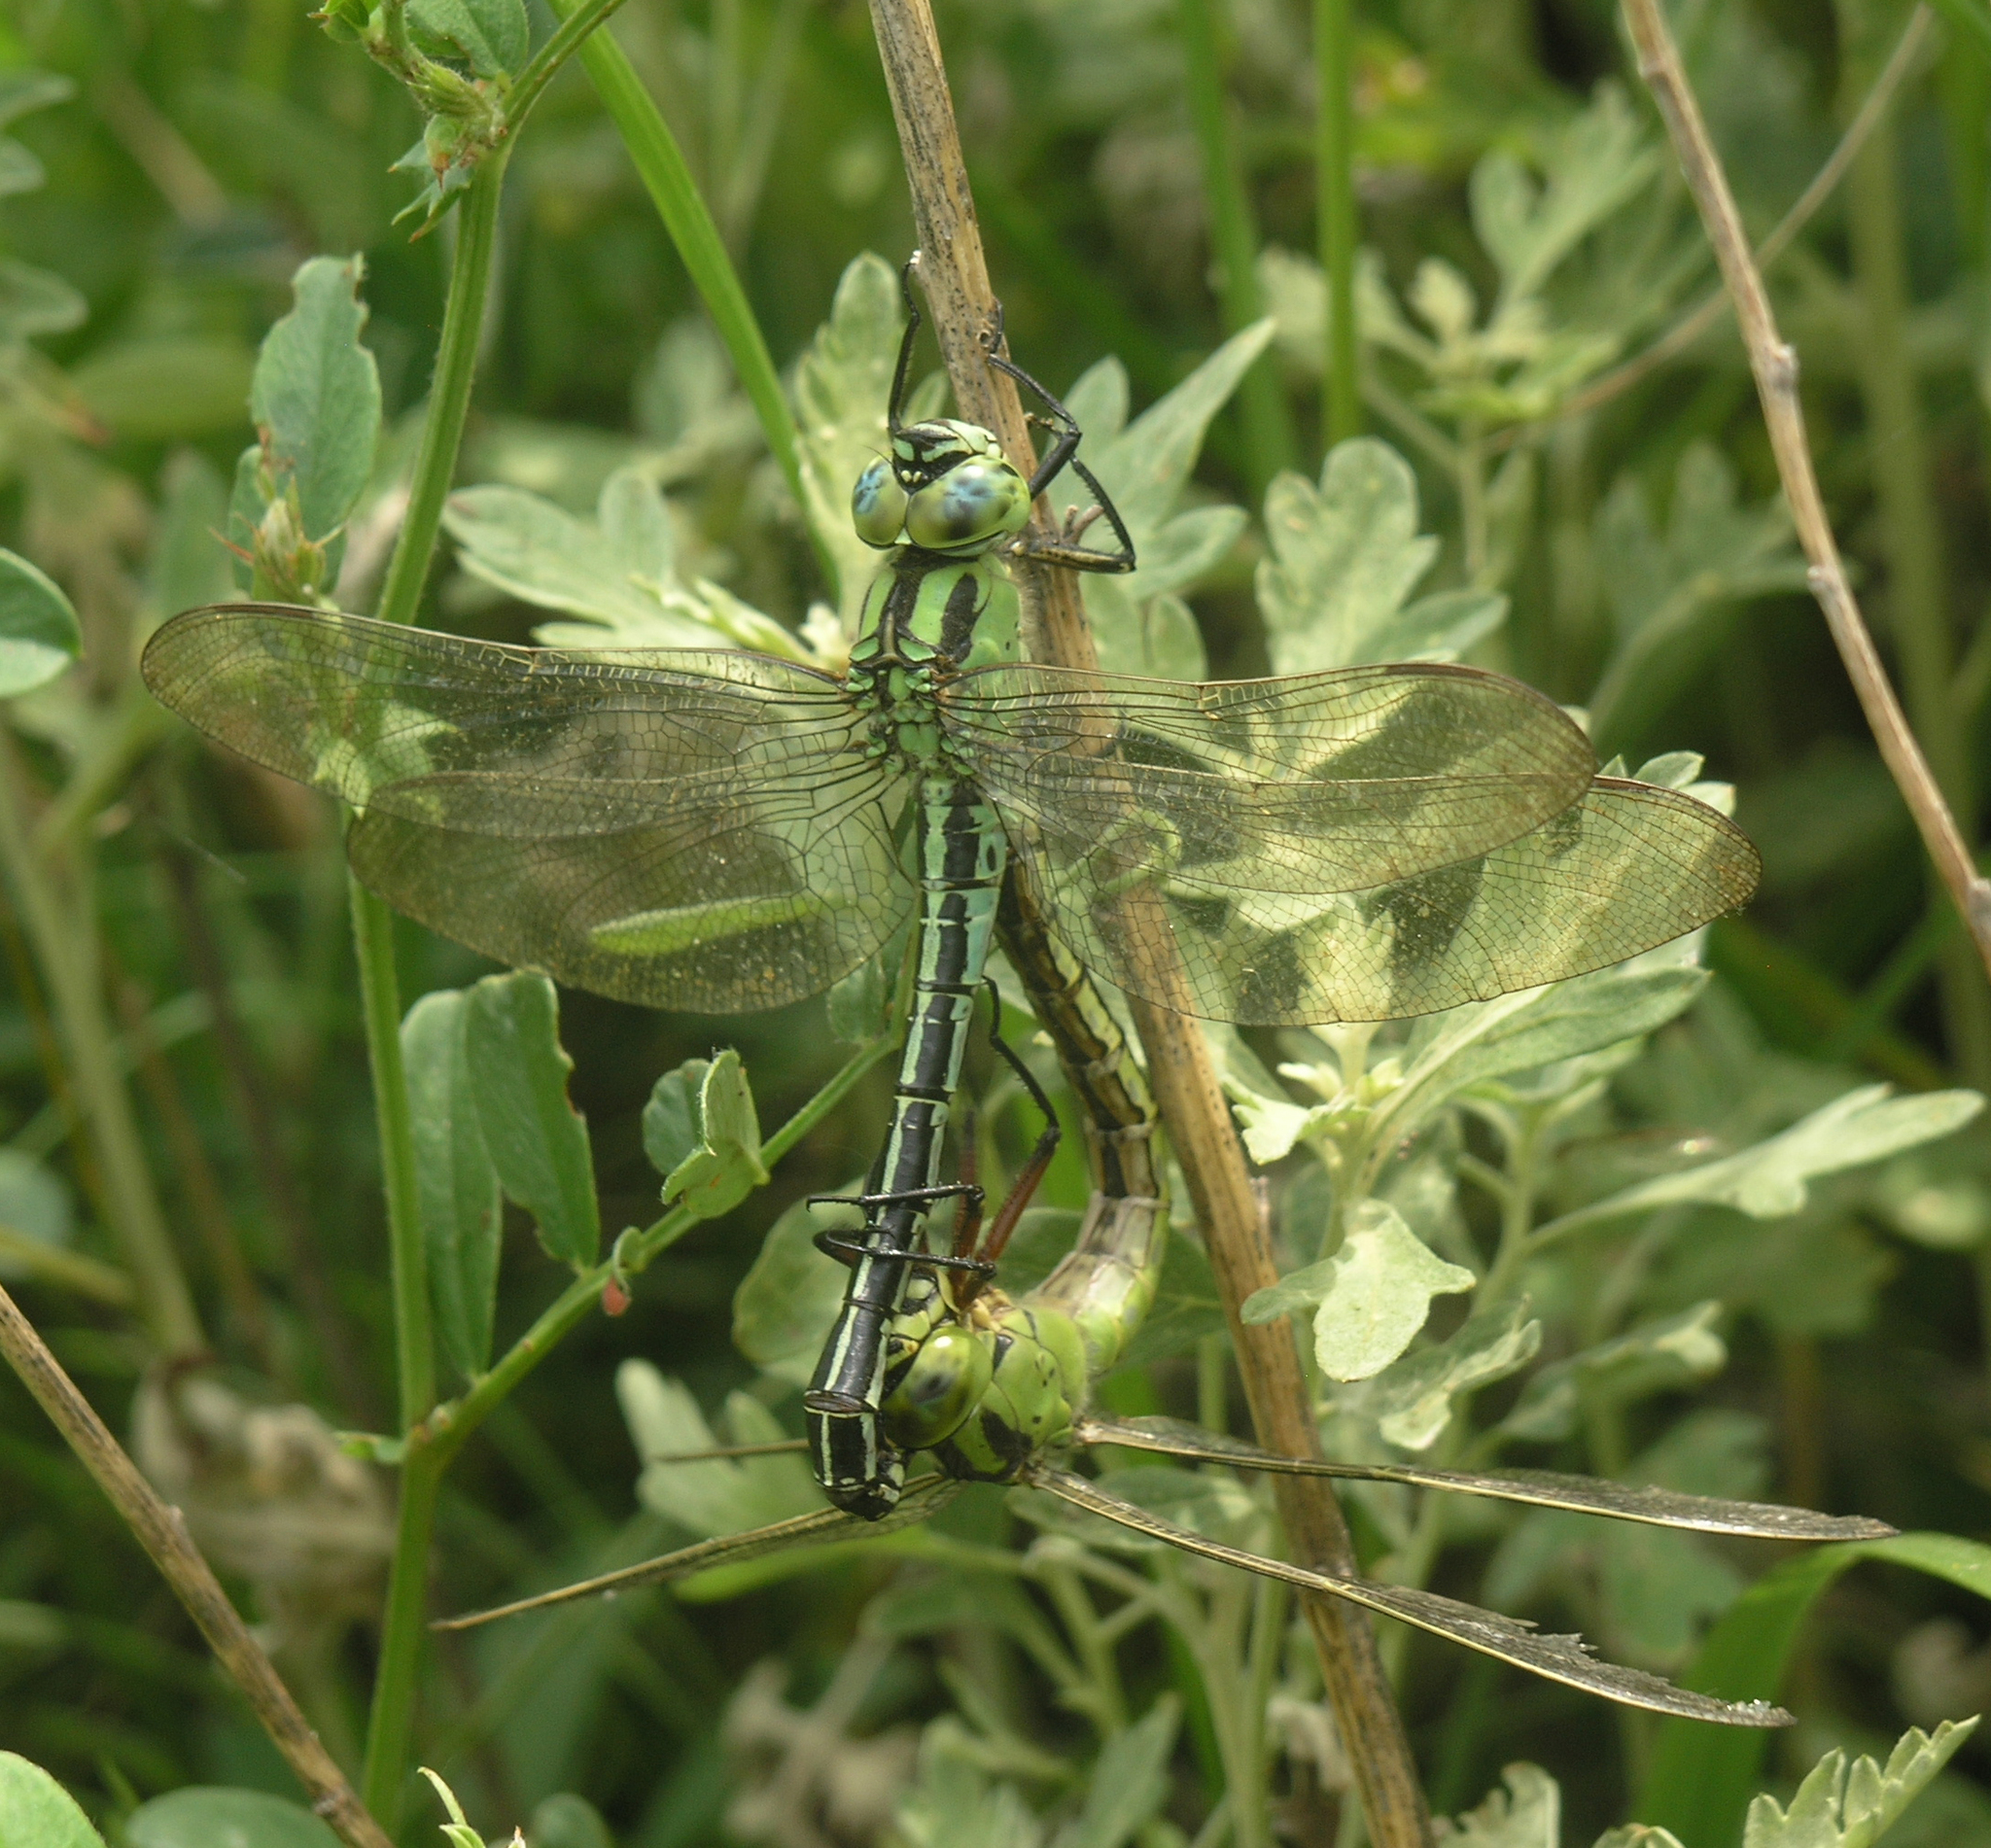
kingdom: Animalia
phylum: Arthropoda
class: Insecta
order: Odonata
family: Aeshnidae
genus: Brachytron
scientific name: Brachytron
